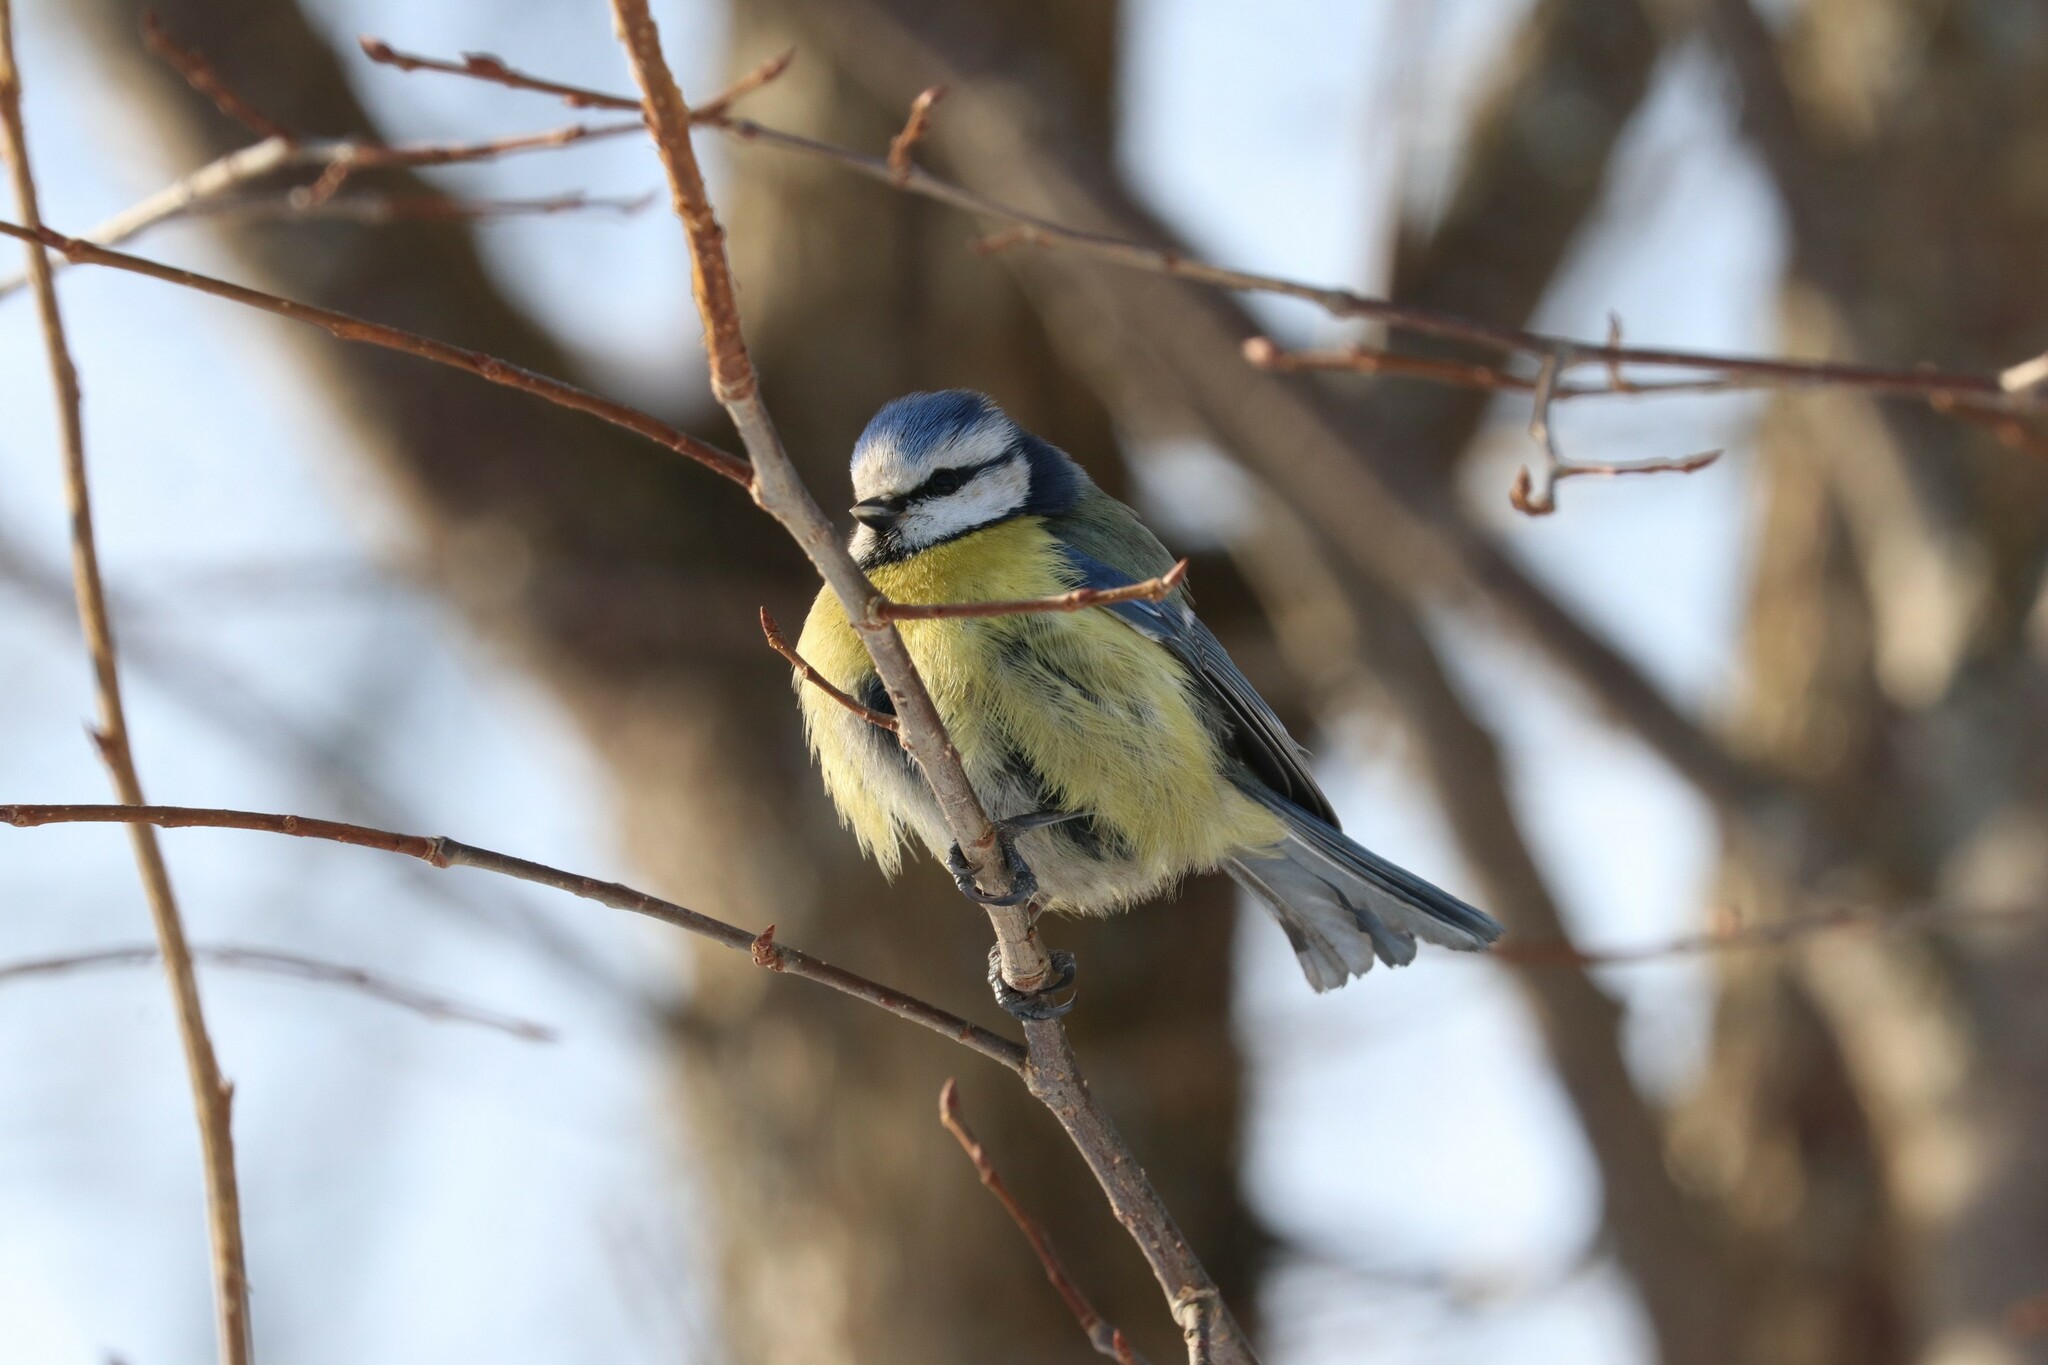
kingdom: Animalia
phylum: Chordata
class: Aves
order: Passeriformes
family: Paridae
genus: Cyanistes
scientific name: Cyanistes caeruleus
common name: Eurasian blue tit
